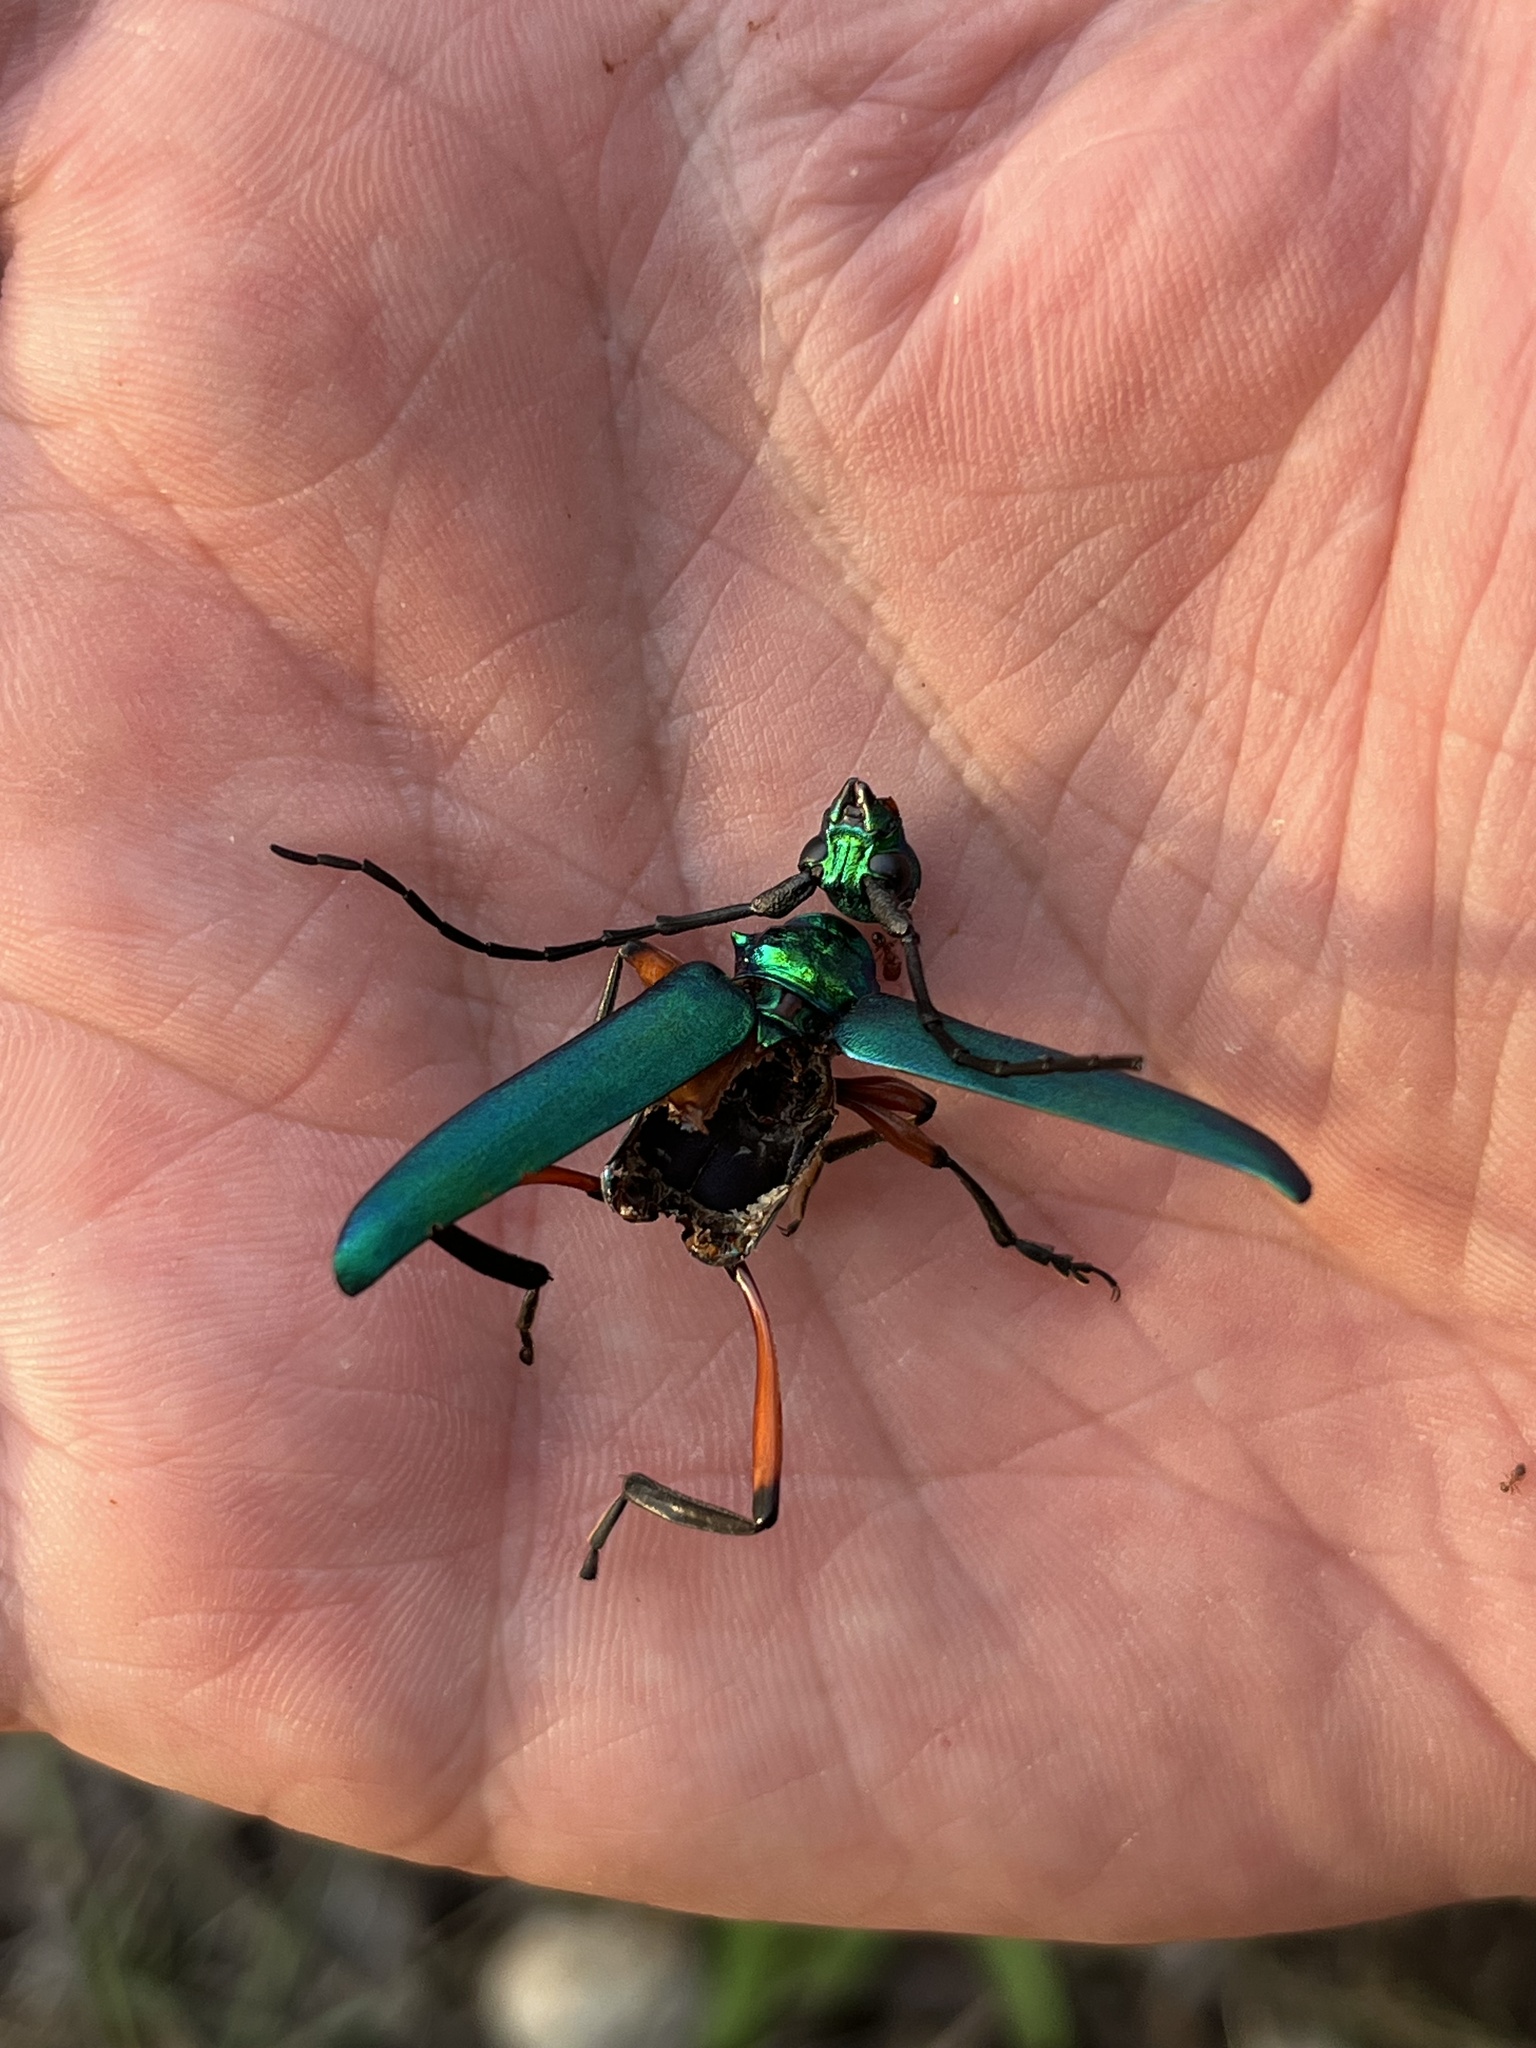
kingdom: Animalia
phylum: Arthropoda
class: Insecta
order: Coleoptera
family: Cerambycidae
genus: Plinthocoelium
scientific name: Plinthocoelium suaveolens
